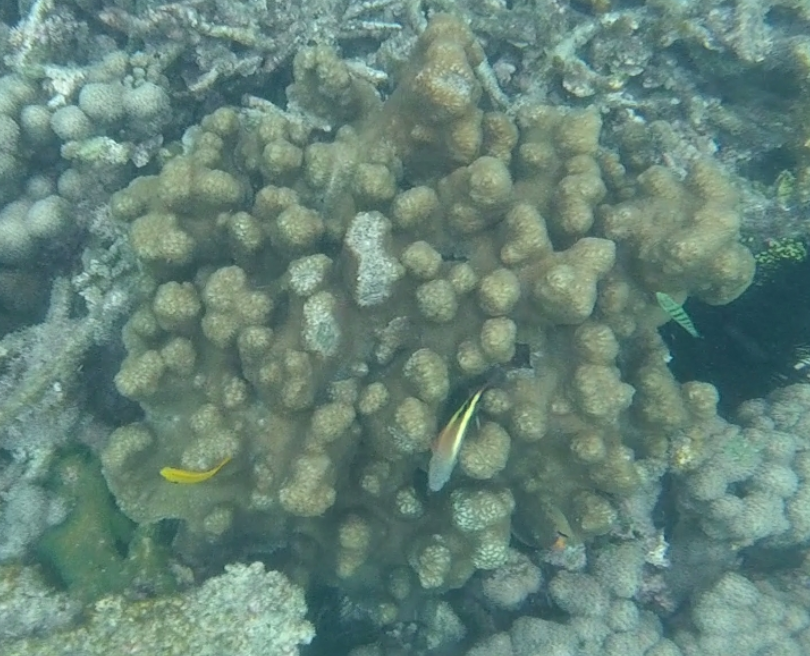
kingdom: Animalia
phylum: Chordata
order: Perciformes
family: Labridae
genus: Thalassoma
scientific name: Thalassoma hardwicke
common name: Sixbar wrasse
